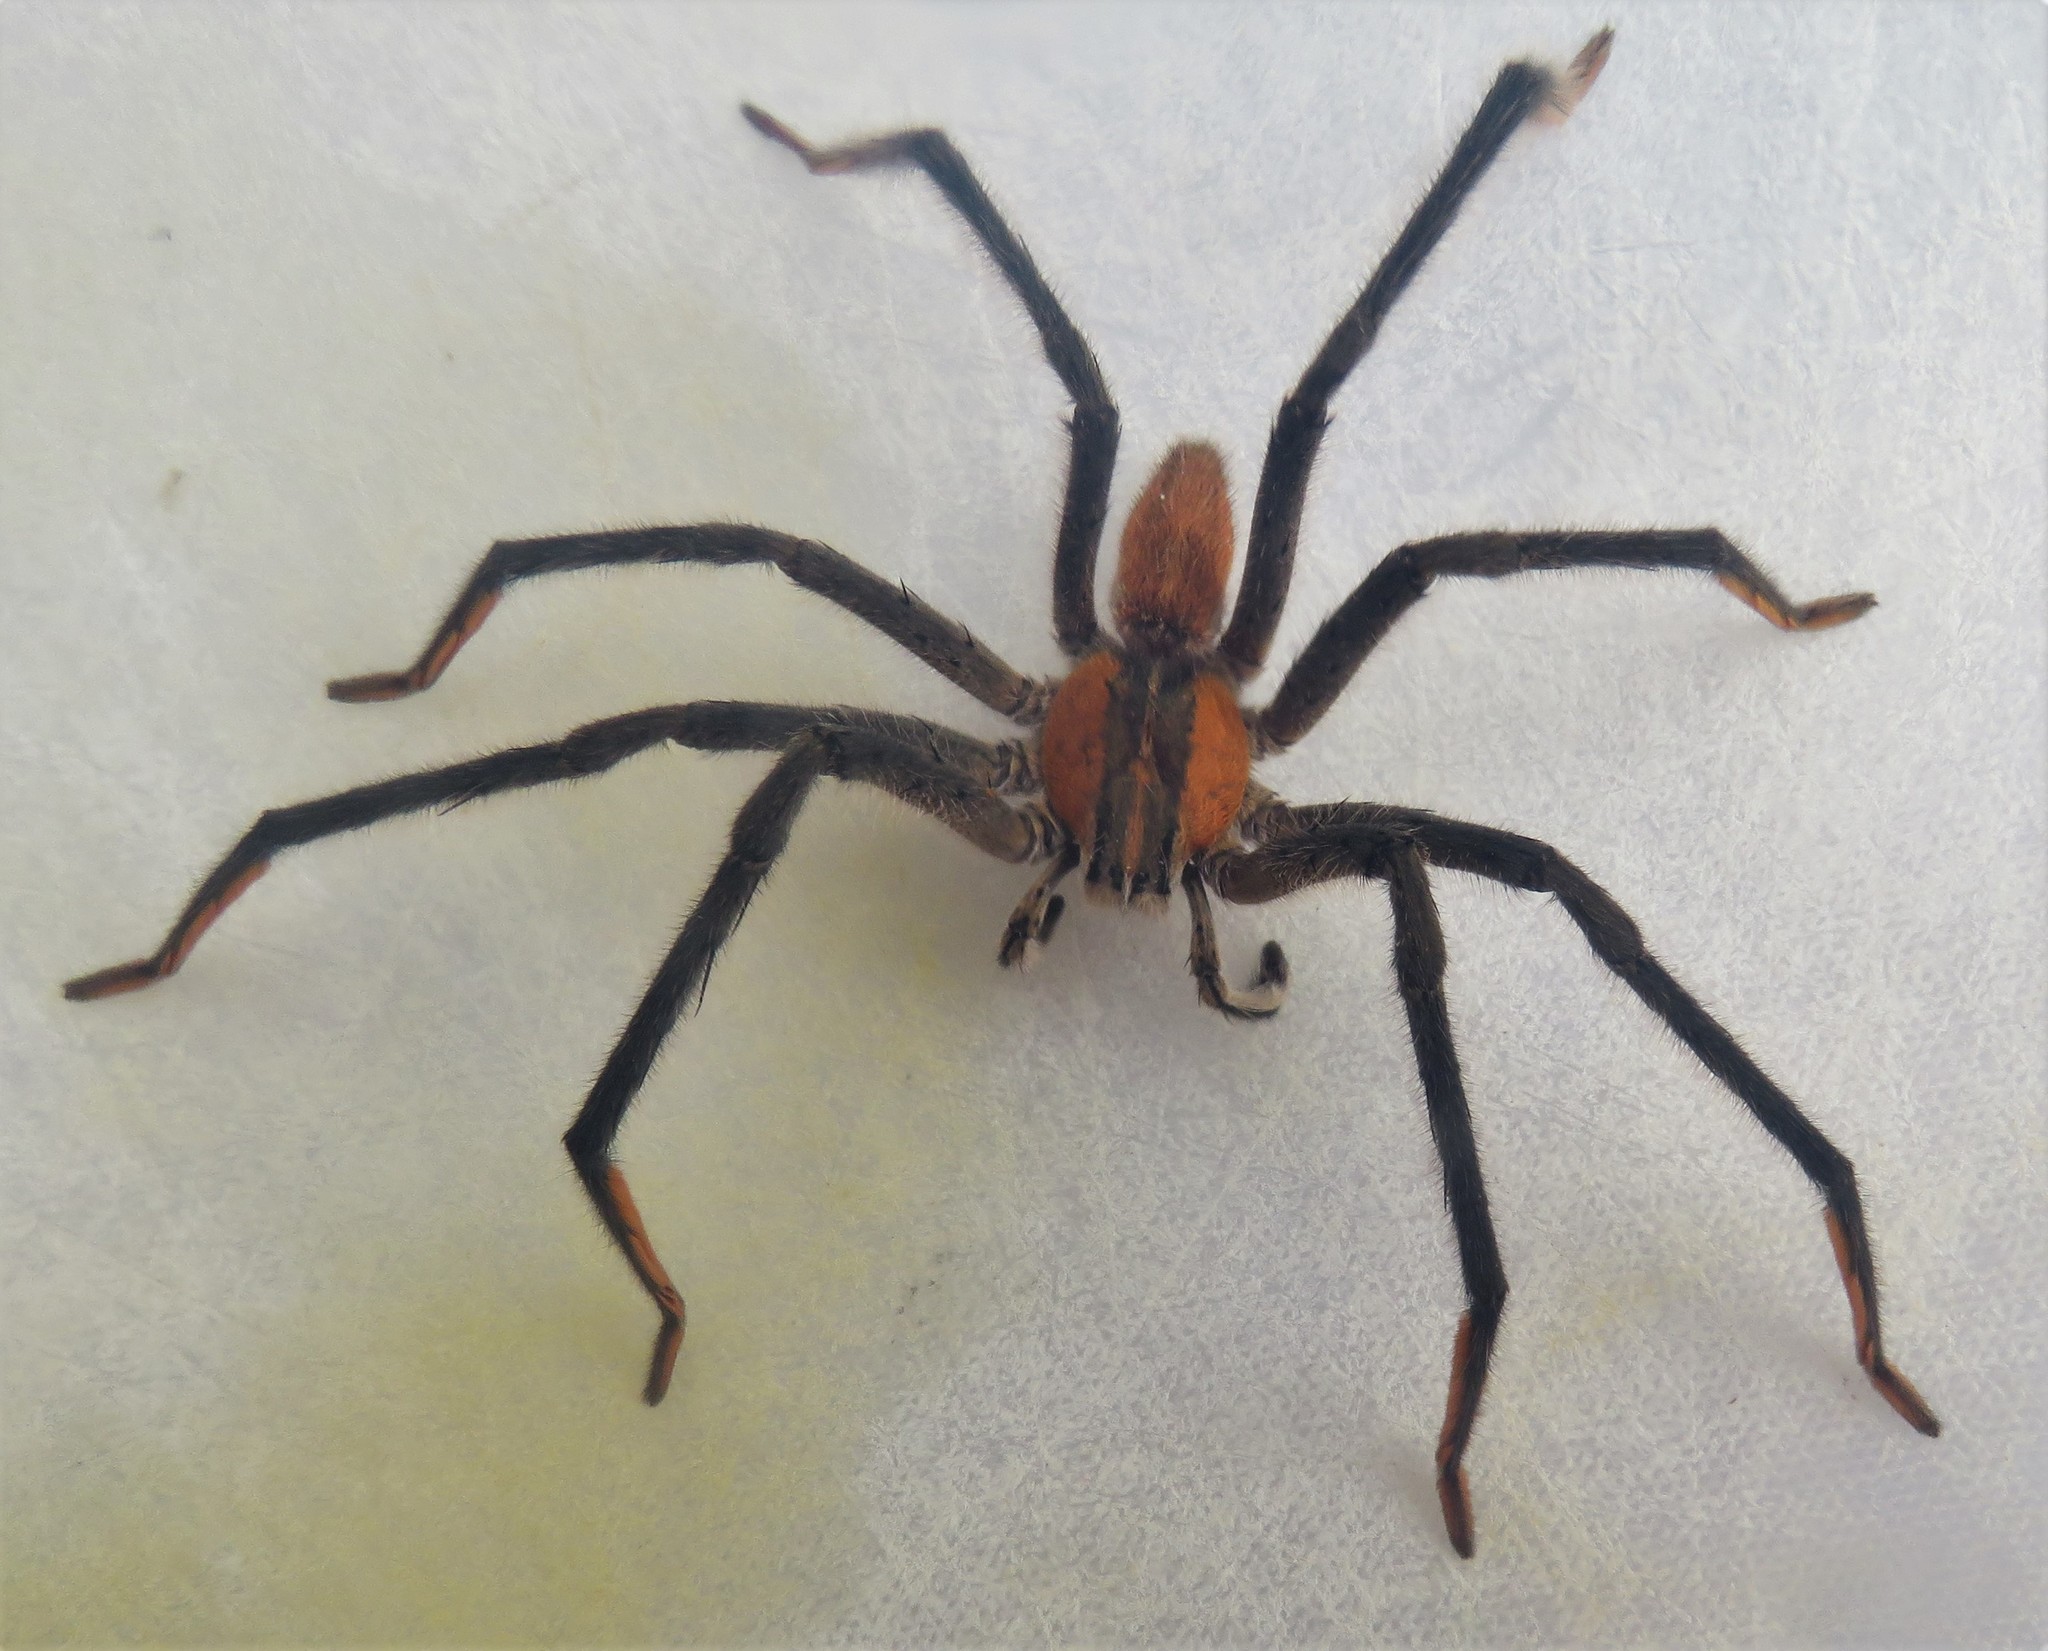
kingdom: Animalia
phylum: Arthropoda
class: Arachnida
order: Araneae
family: Trechaleidae
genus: Cupiennius
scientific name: Cupiennius getazi
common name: Wandering spiders
